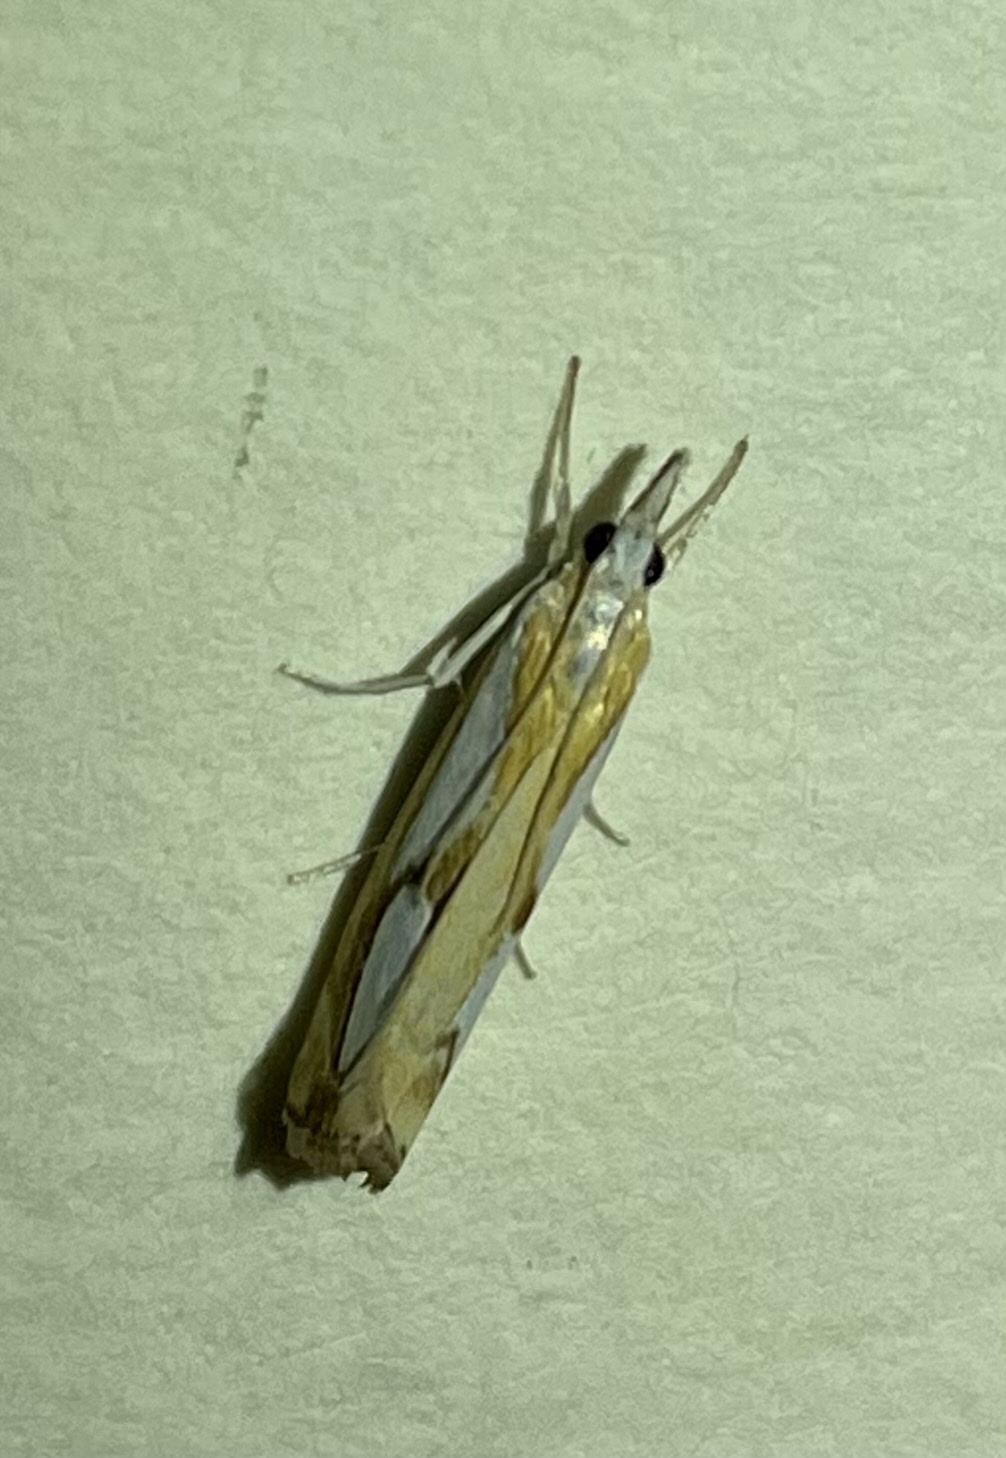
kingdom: Animalia
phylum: Arthropoda
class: Insecta
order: Lepidoptera
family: Crambidae
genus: Catoptria
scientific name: Catoptria pinella
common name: Pearl grass-veneer
